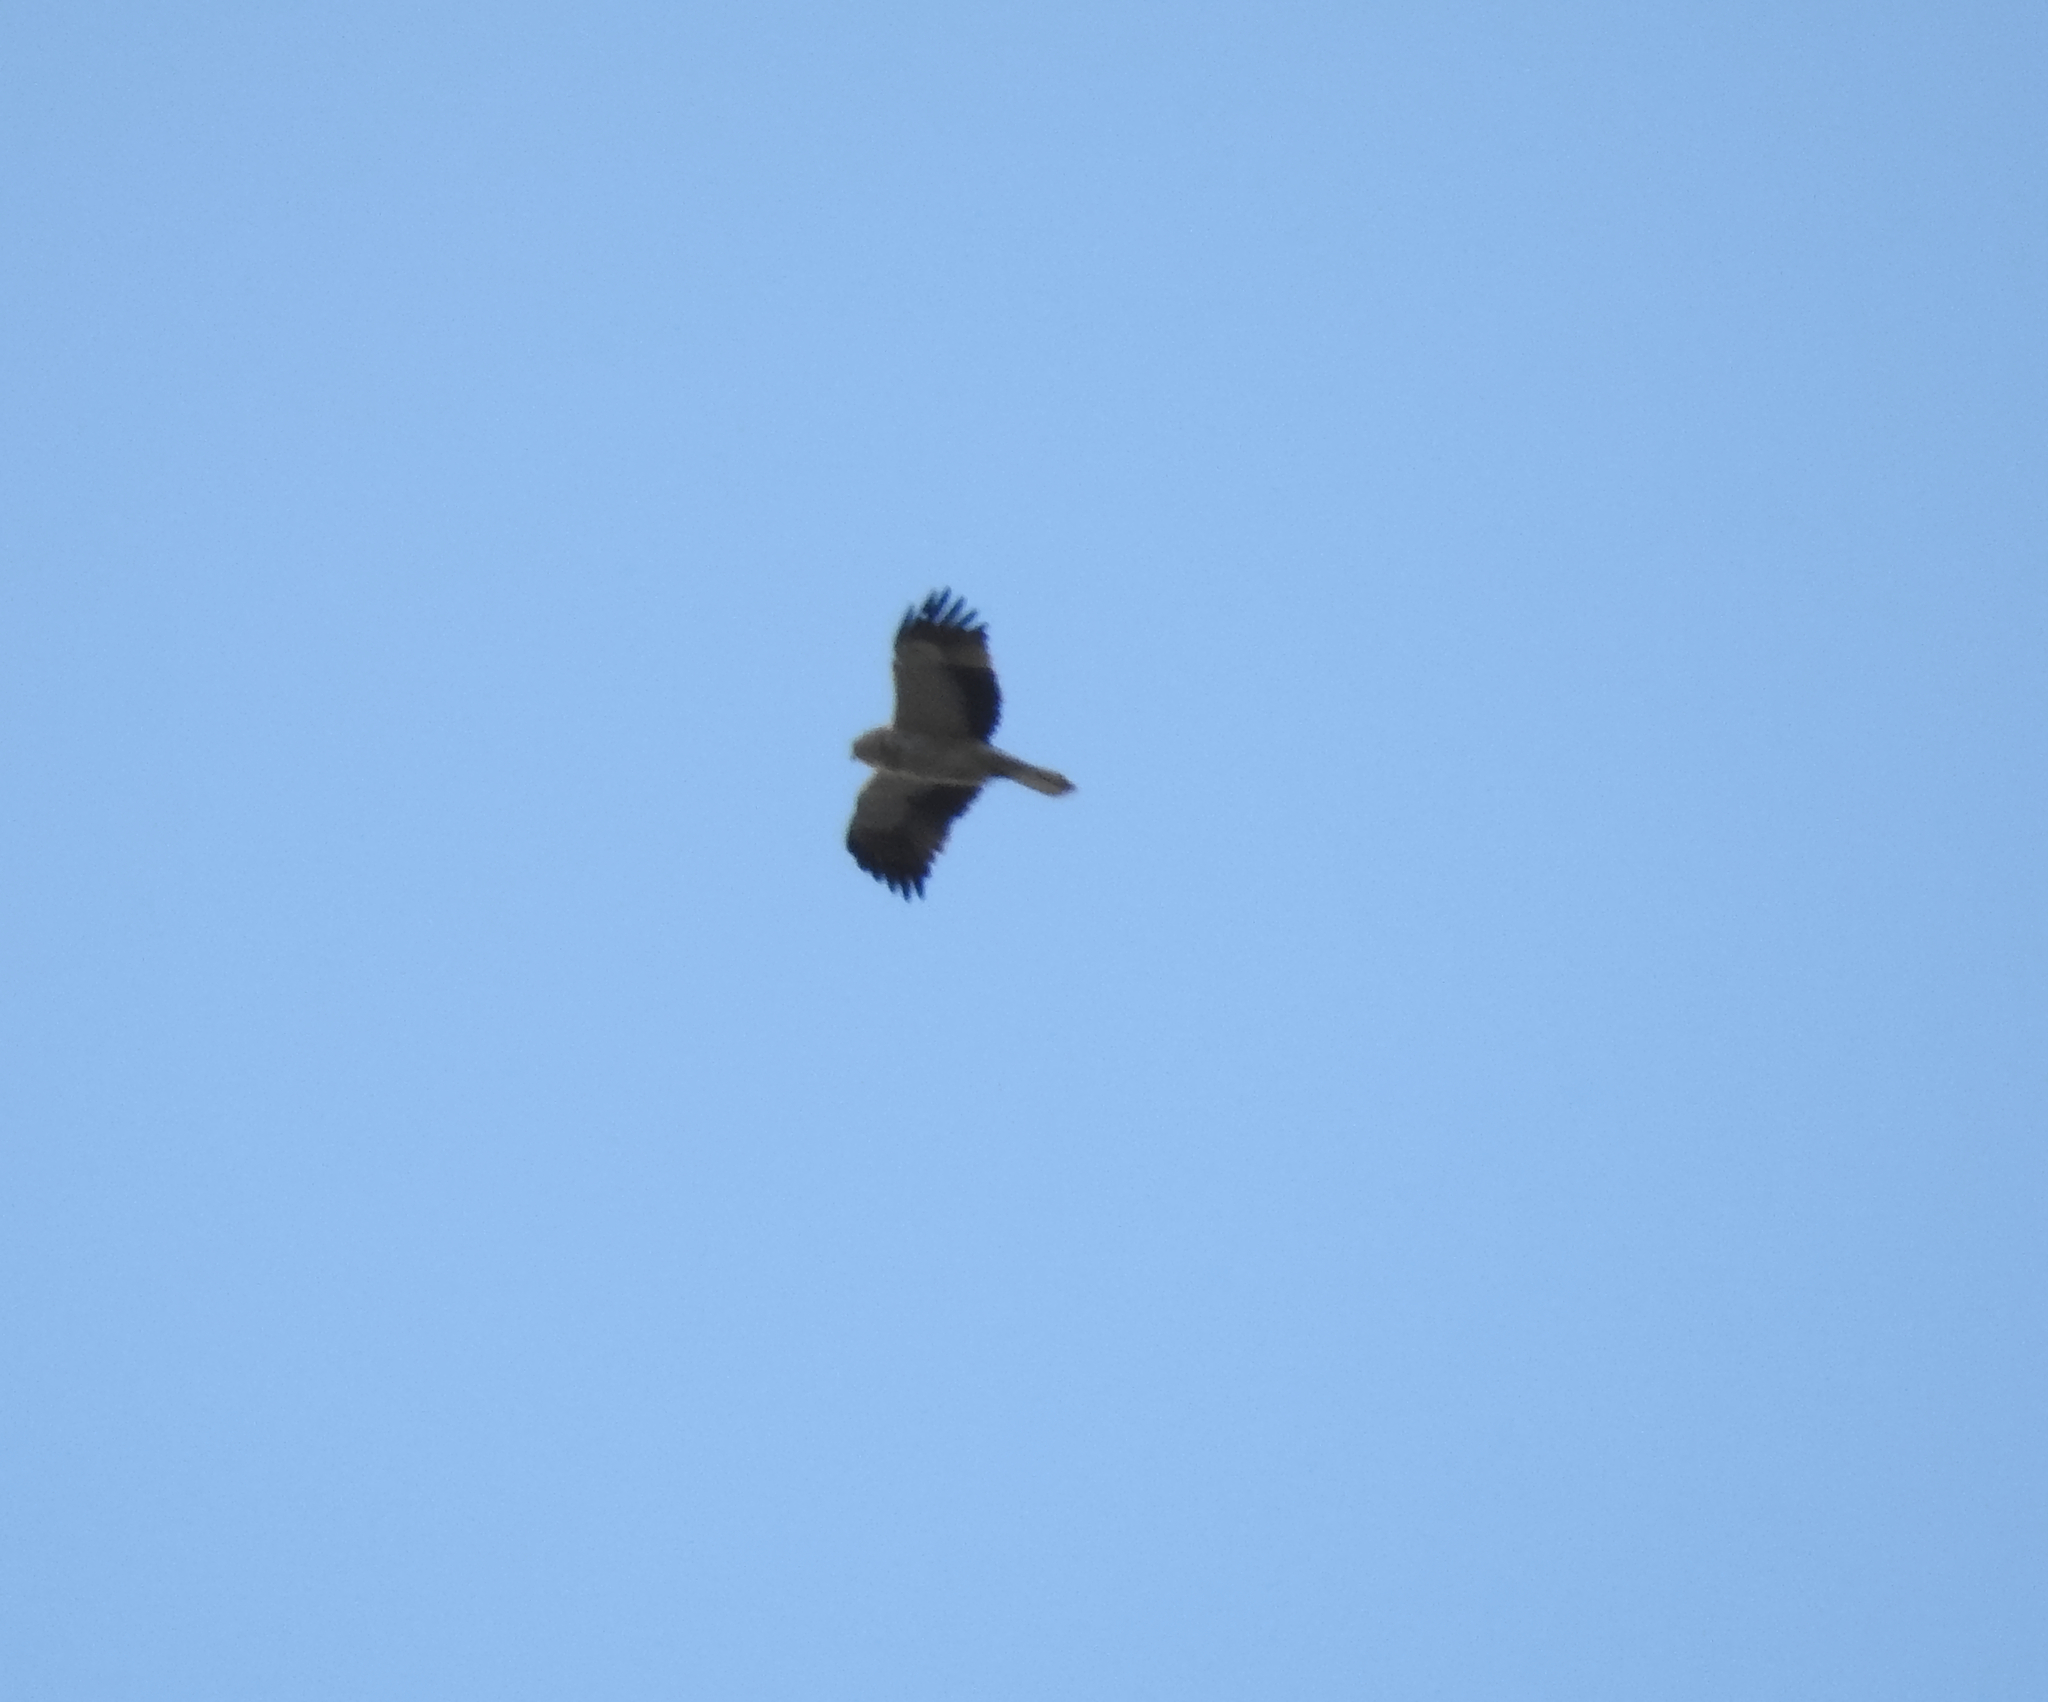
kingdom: Animalia
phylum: Chordata
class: Aves
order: Accipitriformes
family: Accipitridae
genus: Hieraaetus
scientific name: Hieraaetus pennatus
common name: Booted eagle
